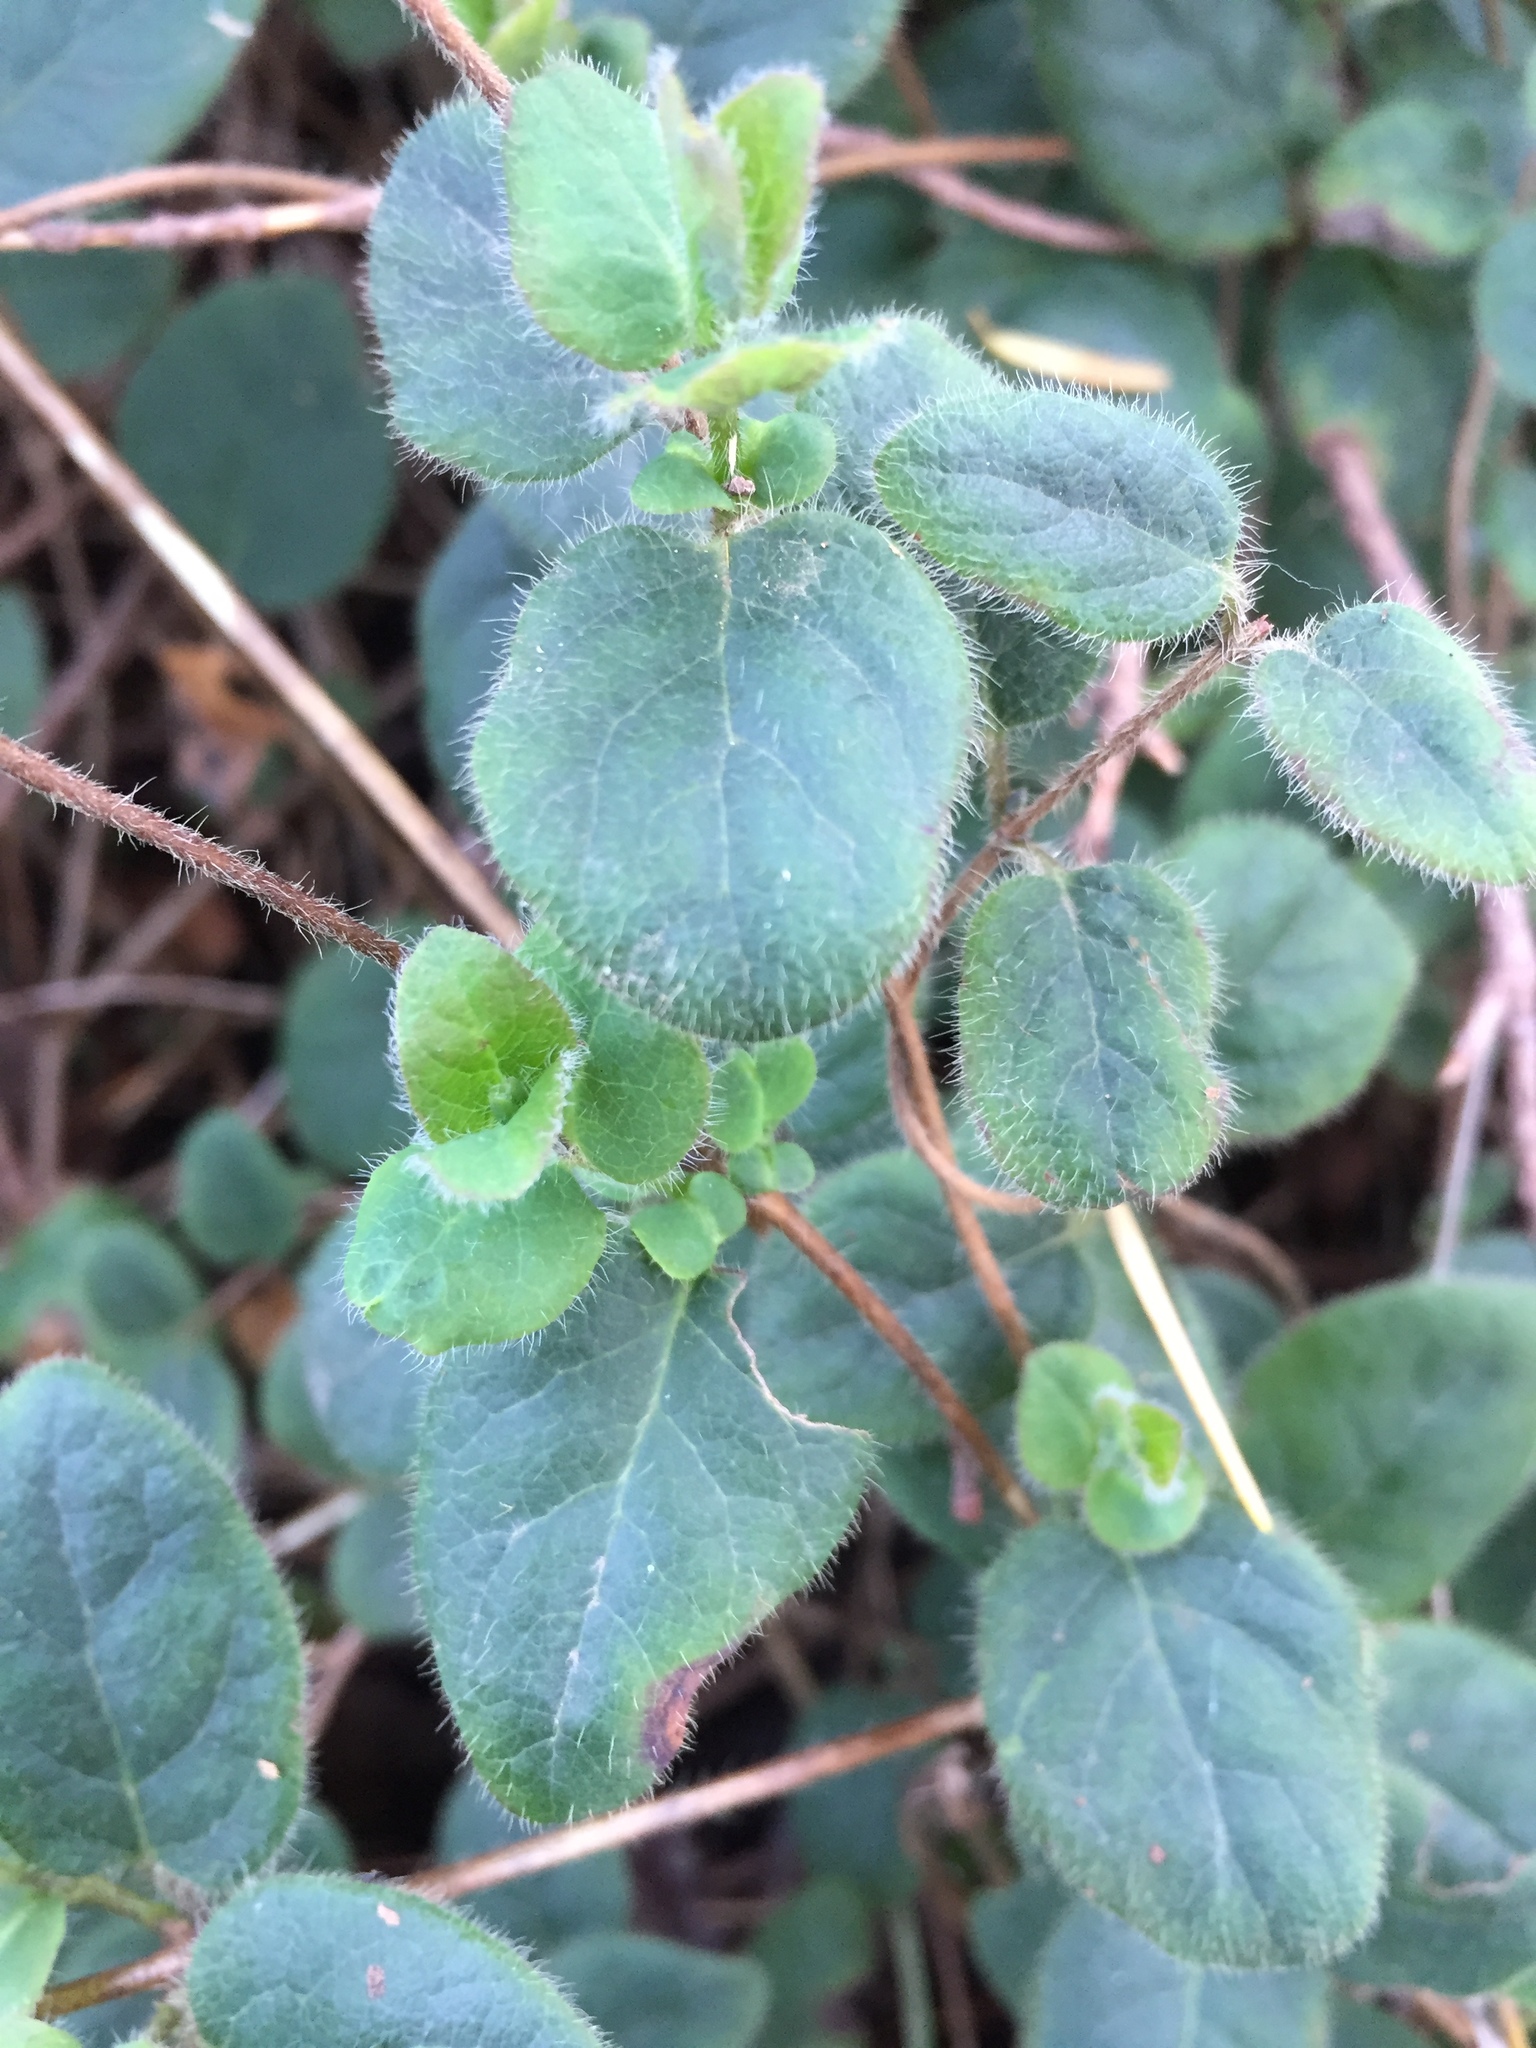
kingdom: Plantae
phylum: Tracheophyta
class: Magnoliopsida
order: Dipsacales
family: Caprifoliaceae
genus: Lonicera
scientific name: Lonicera hispidula
